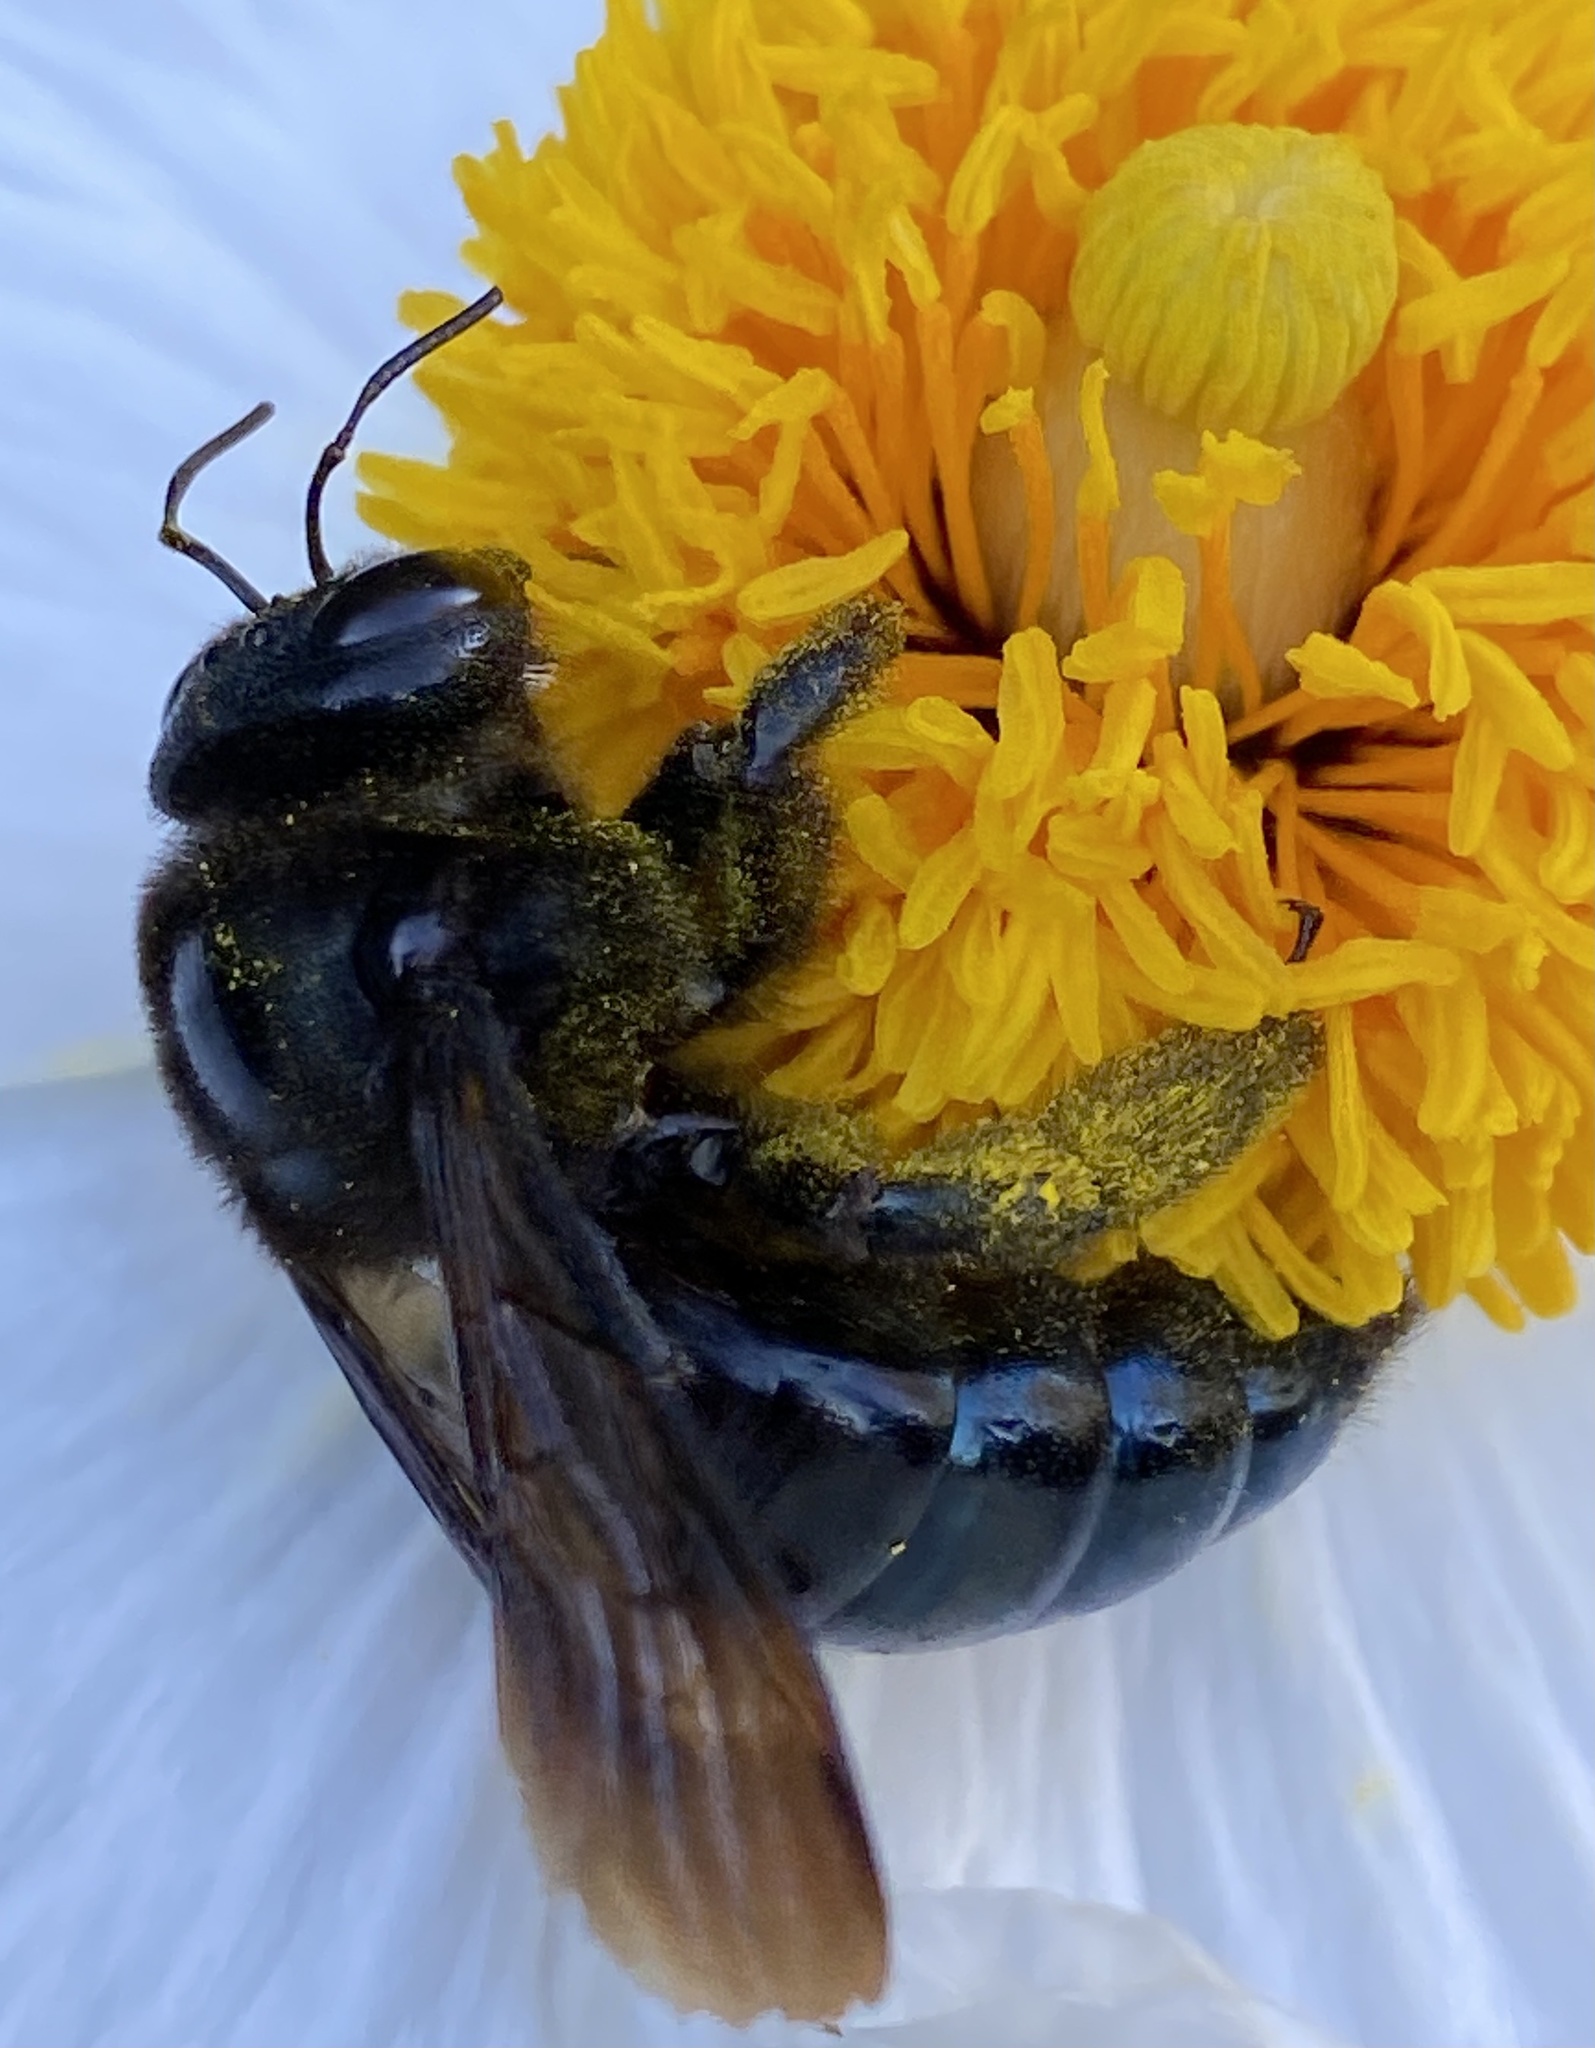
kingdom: Animalia
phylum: Arthropoda
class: Insecta
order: Hymenoptera
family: Apidae
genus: Xylocopa
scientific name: Xylocopa californica
